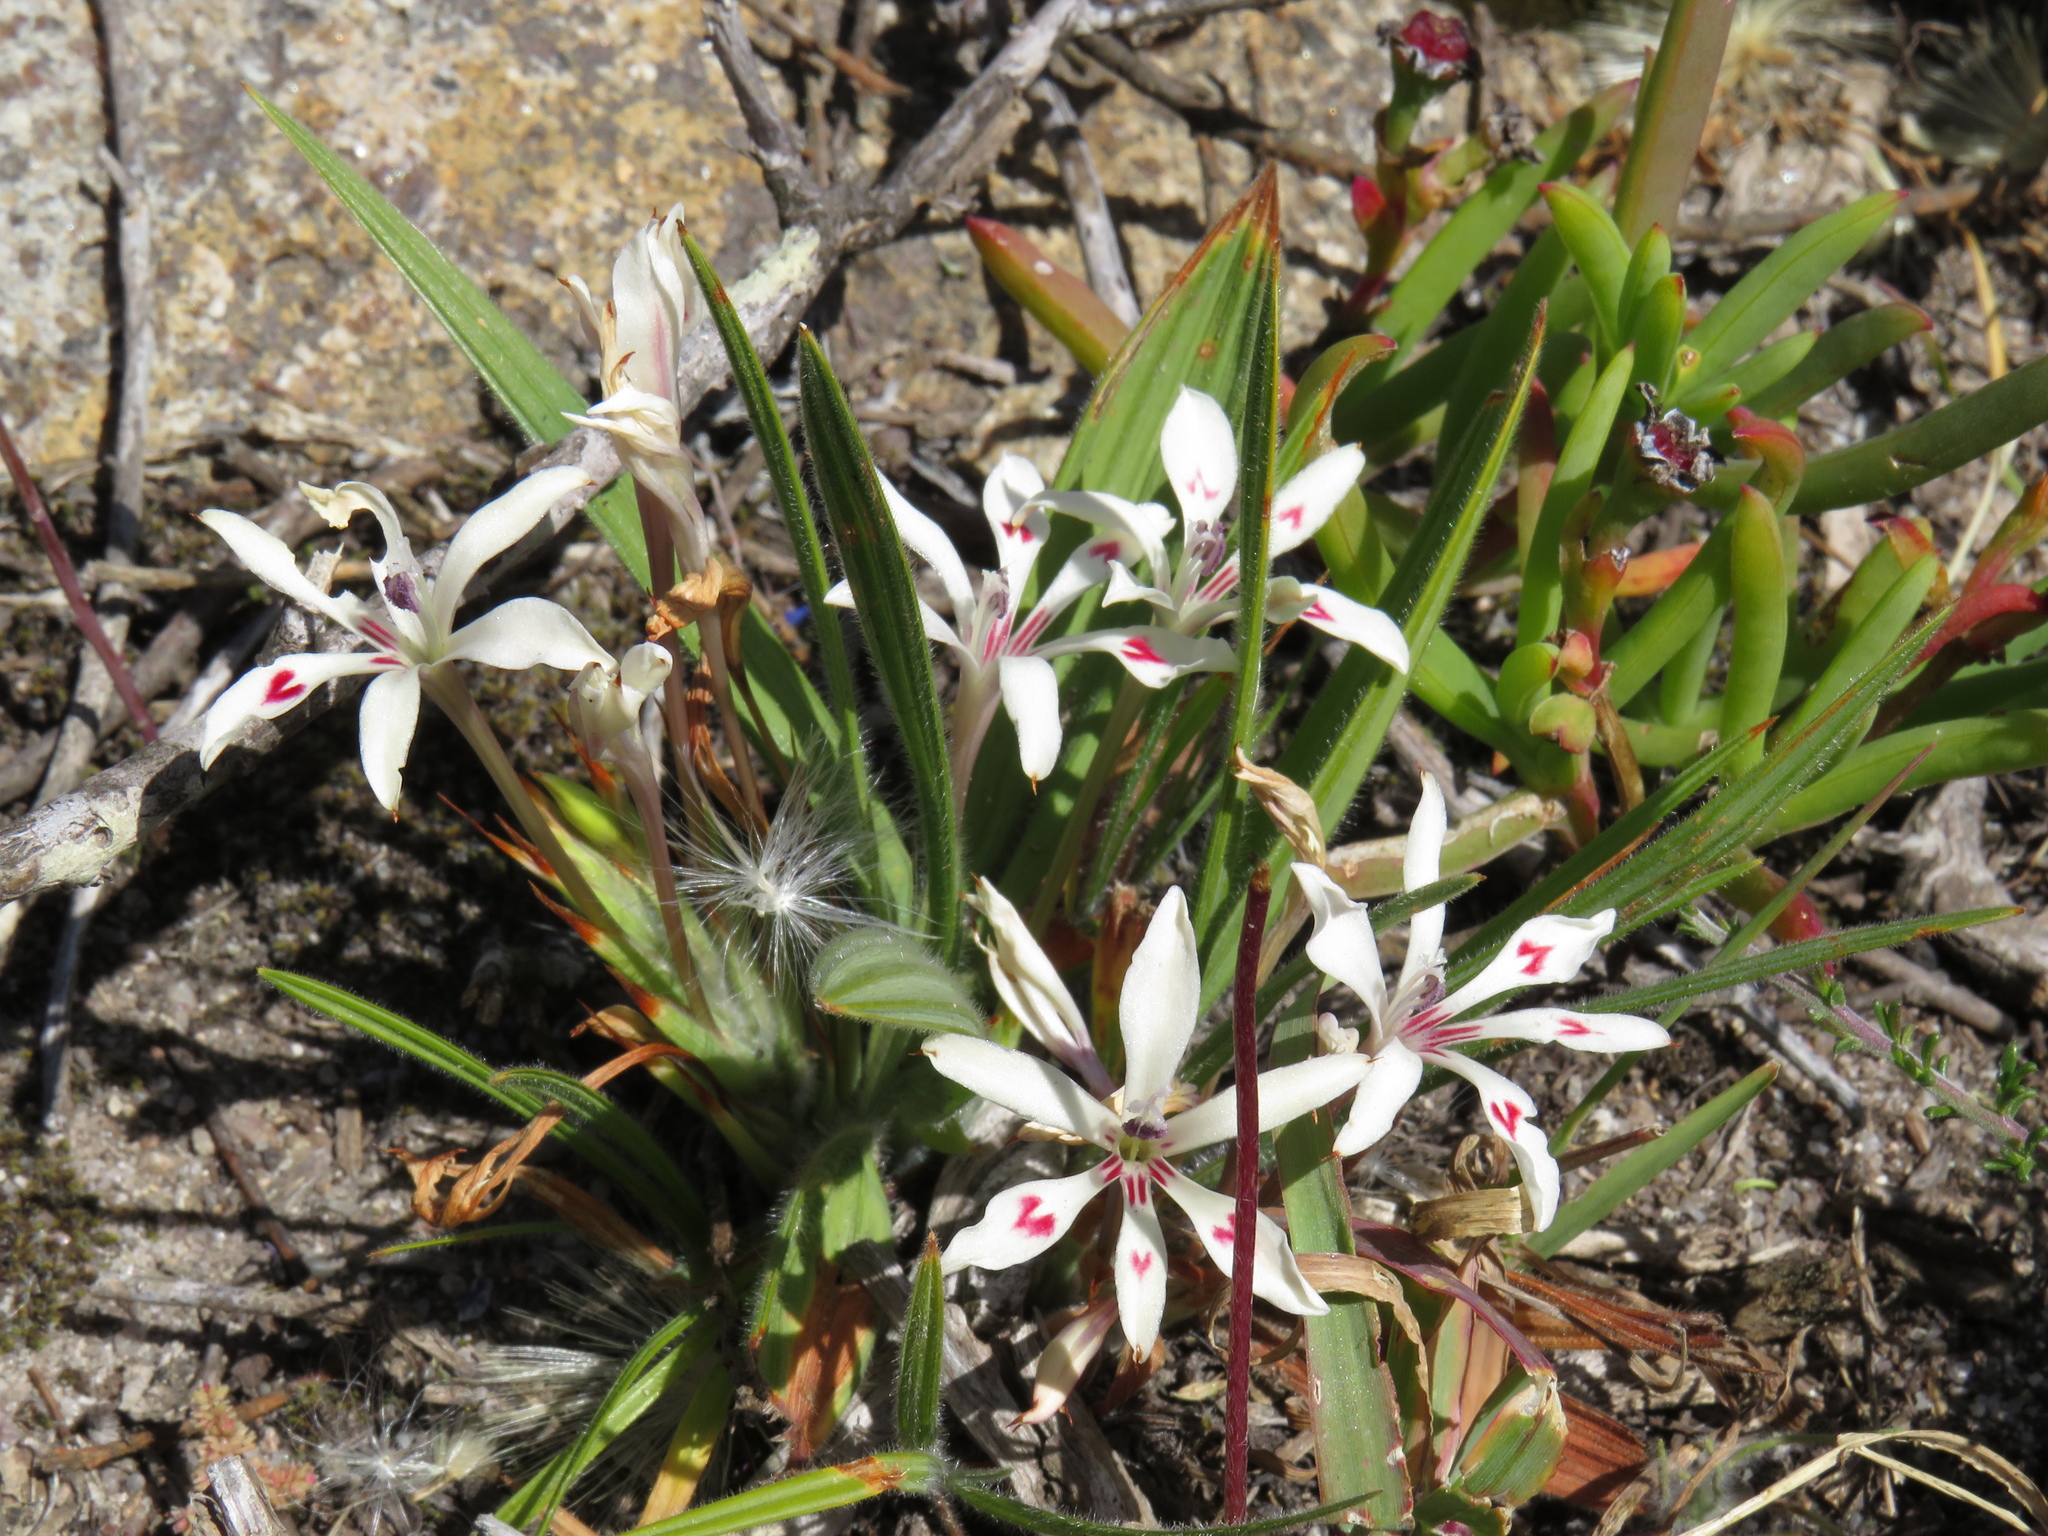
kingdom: Plantae
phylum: Tracheophyta
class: Liliopsida
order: Asparagales
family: Iridaceae
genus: Babiana
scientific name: Babiana tubiflora
